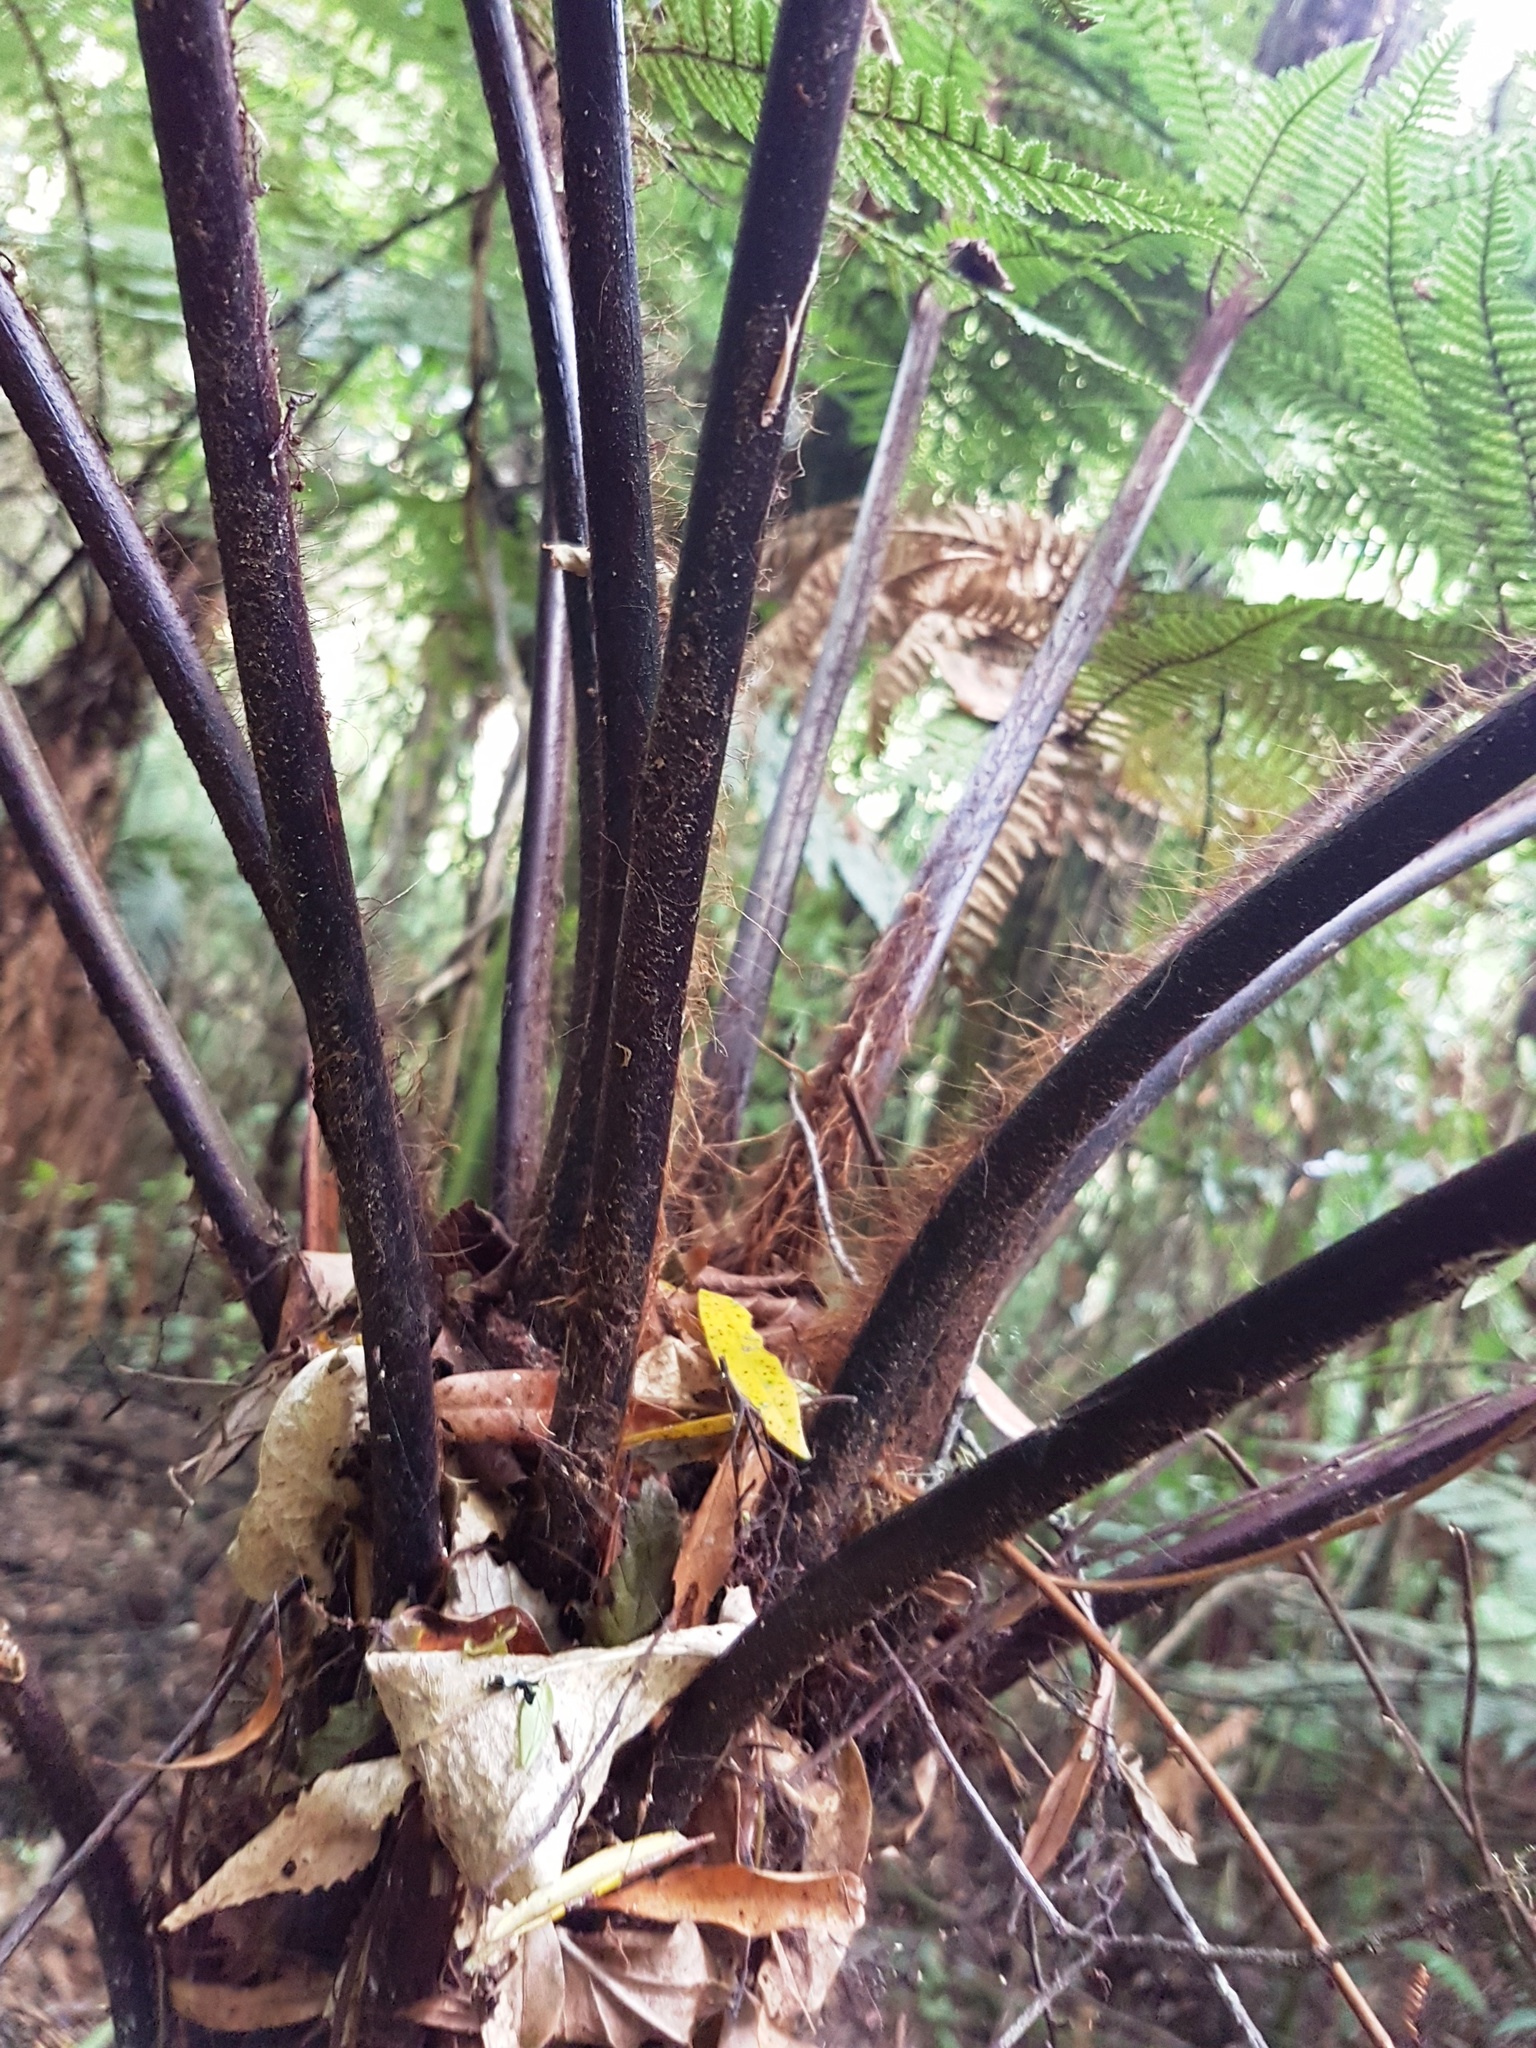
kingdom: Plantae
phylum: Tracheophyta
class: Polypodiopsida
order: Cyatheales
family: Dicksoniaceae
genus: Dicksonia
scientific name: Dicksonia squarrosa
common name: Hard treefern
